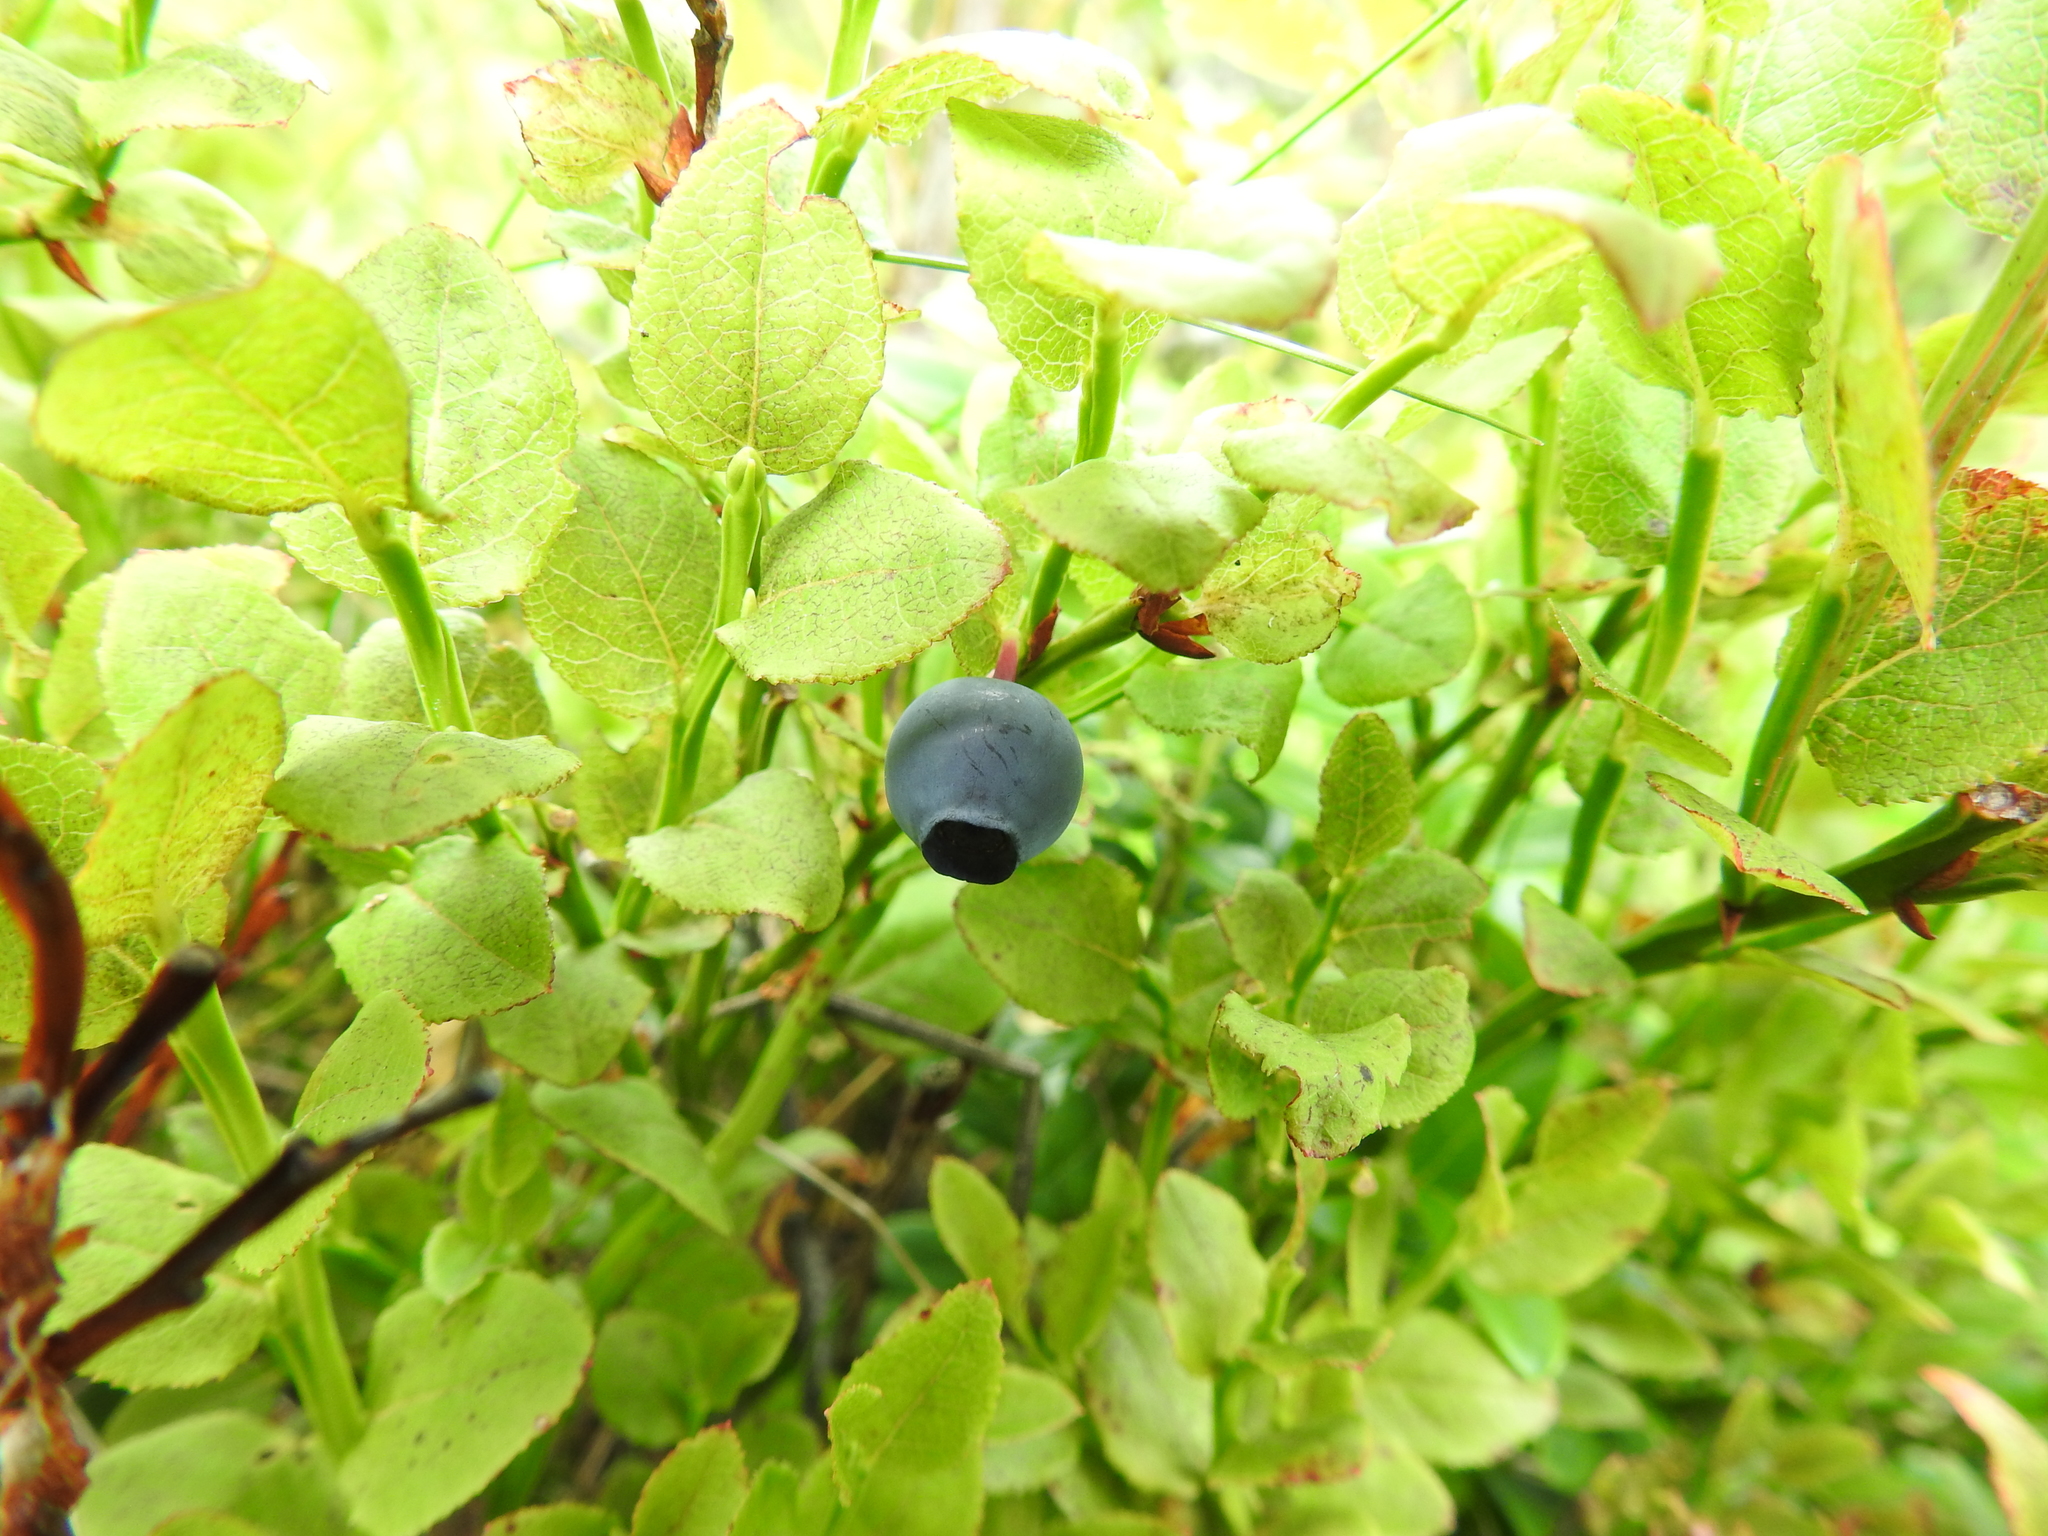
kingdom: Plantae
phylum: Tracheophyta
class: Magnoliopsida
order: Ericales
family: Ericaceae
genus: Vaccinium
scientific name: Vaccinium myrtillus
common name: Bilberry
